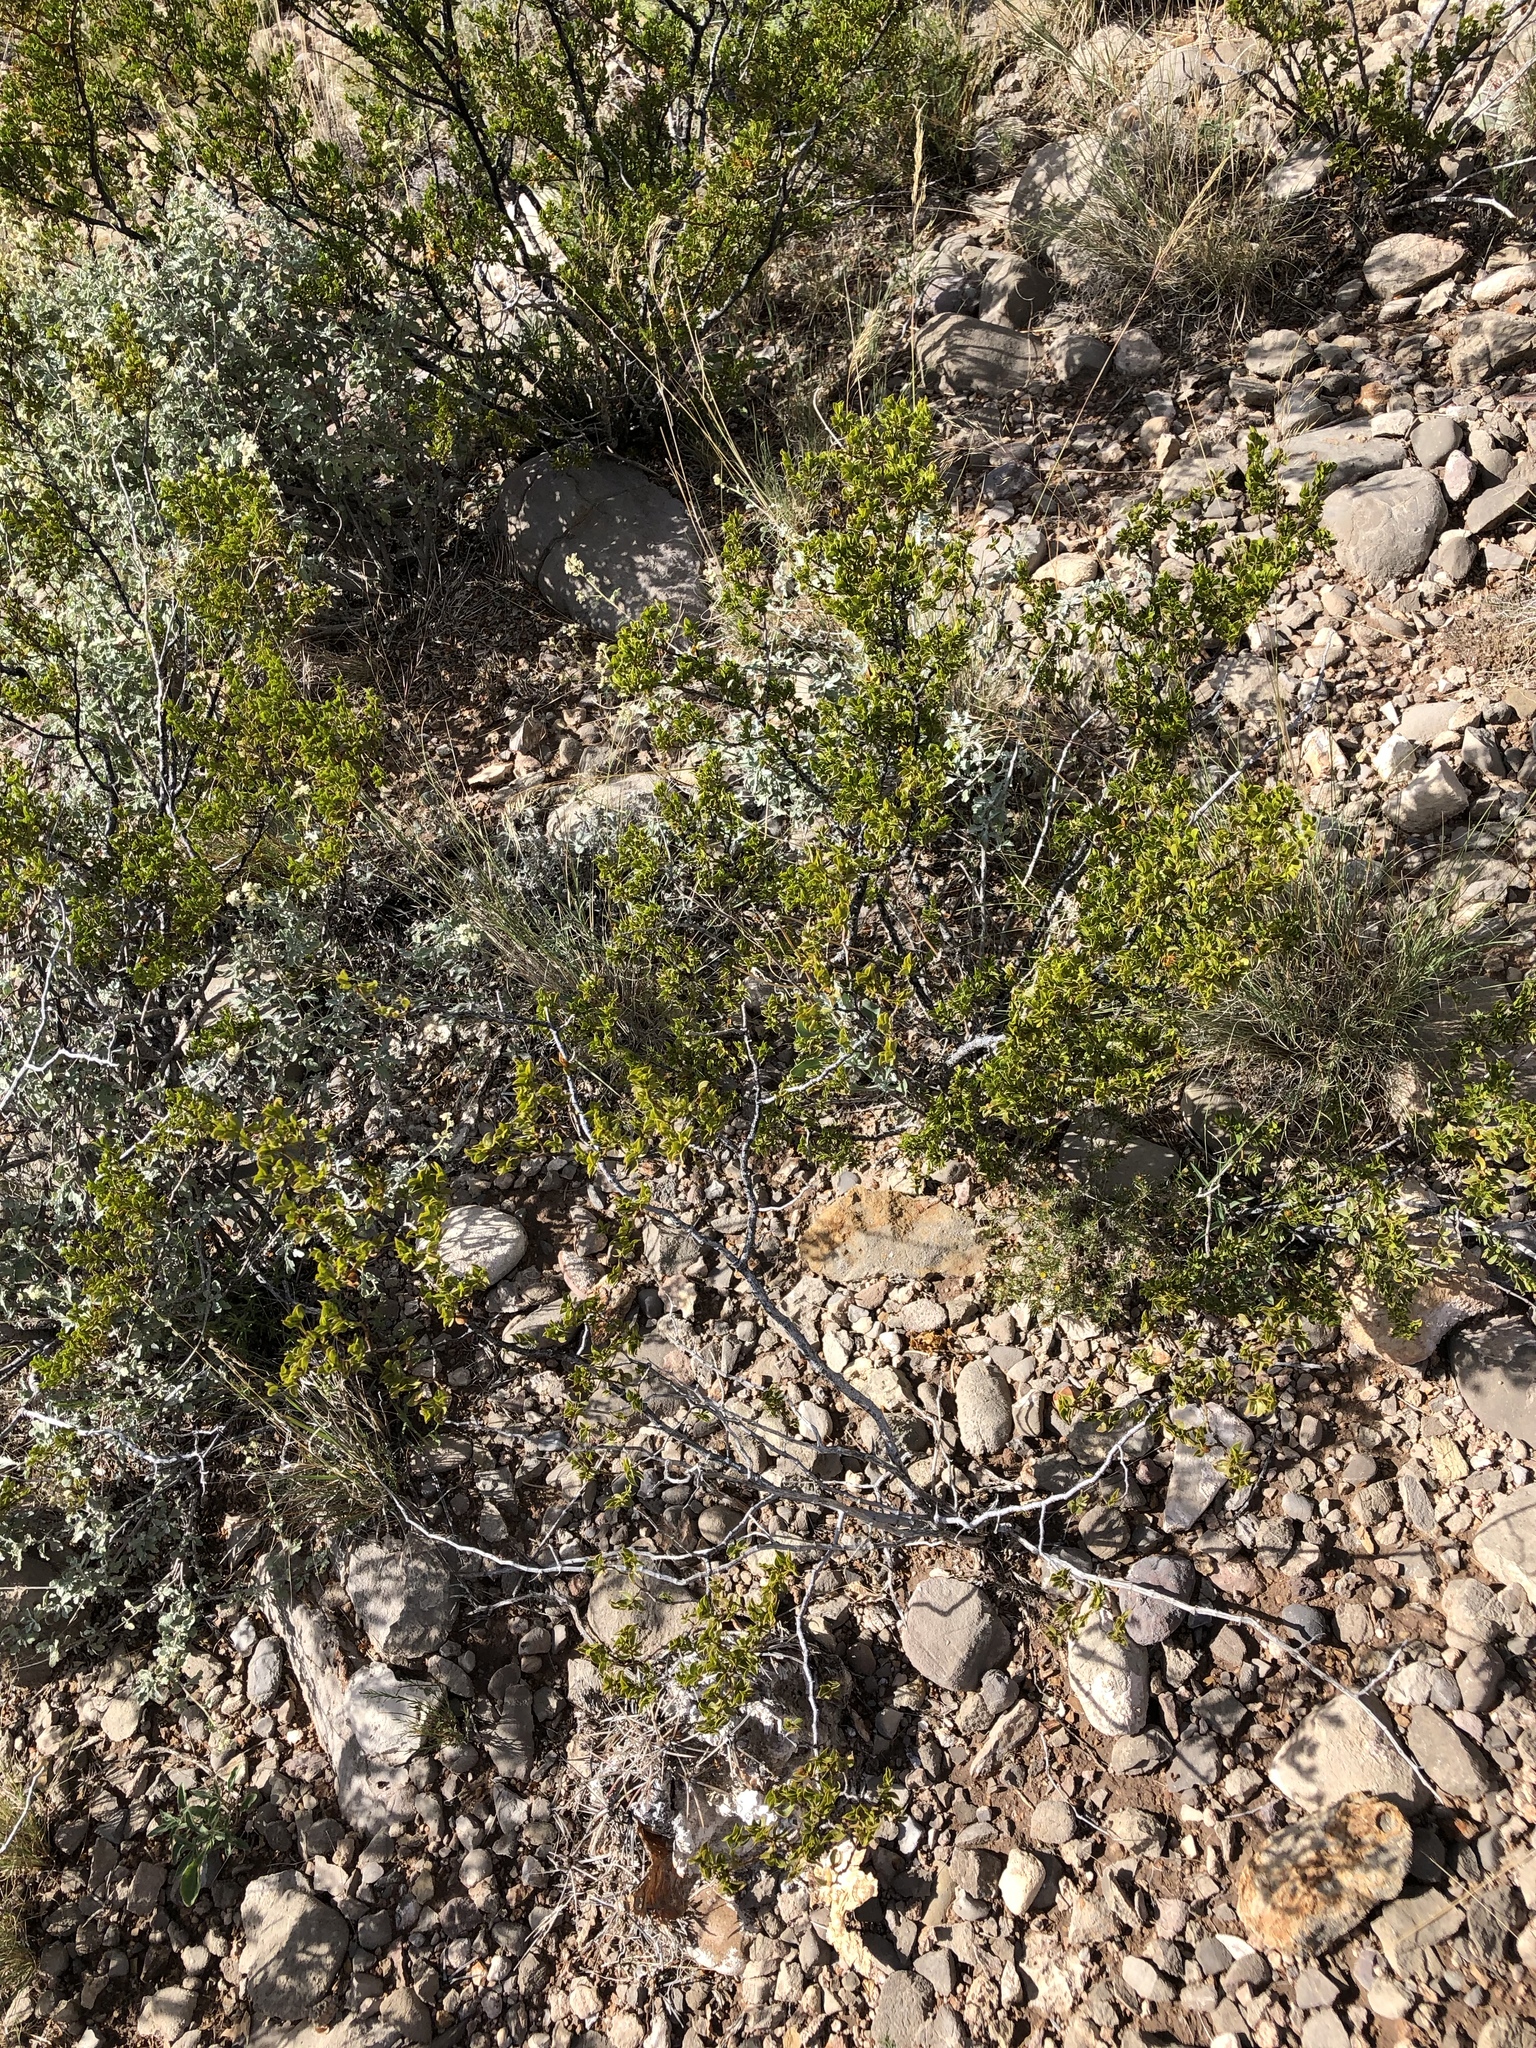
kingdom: Plantae
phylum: Tracheophyta
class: Magnoliopsida
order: Zygophyllales
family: Zygophyllaceae
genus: Larrea
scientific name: Larrea tridentata
